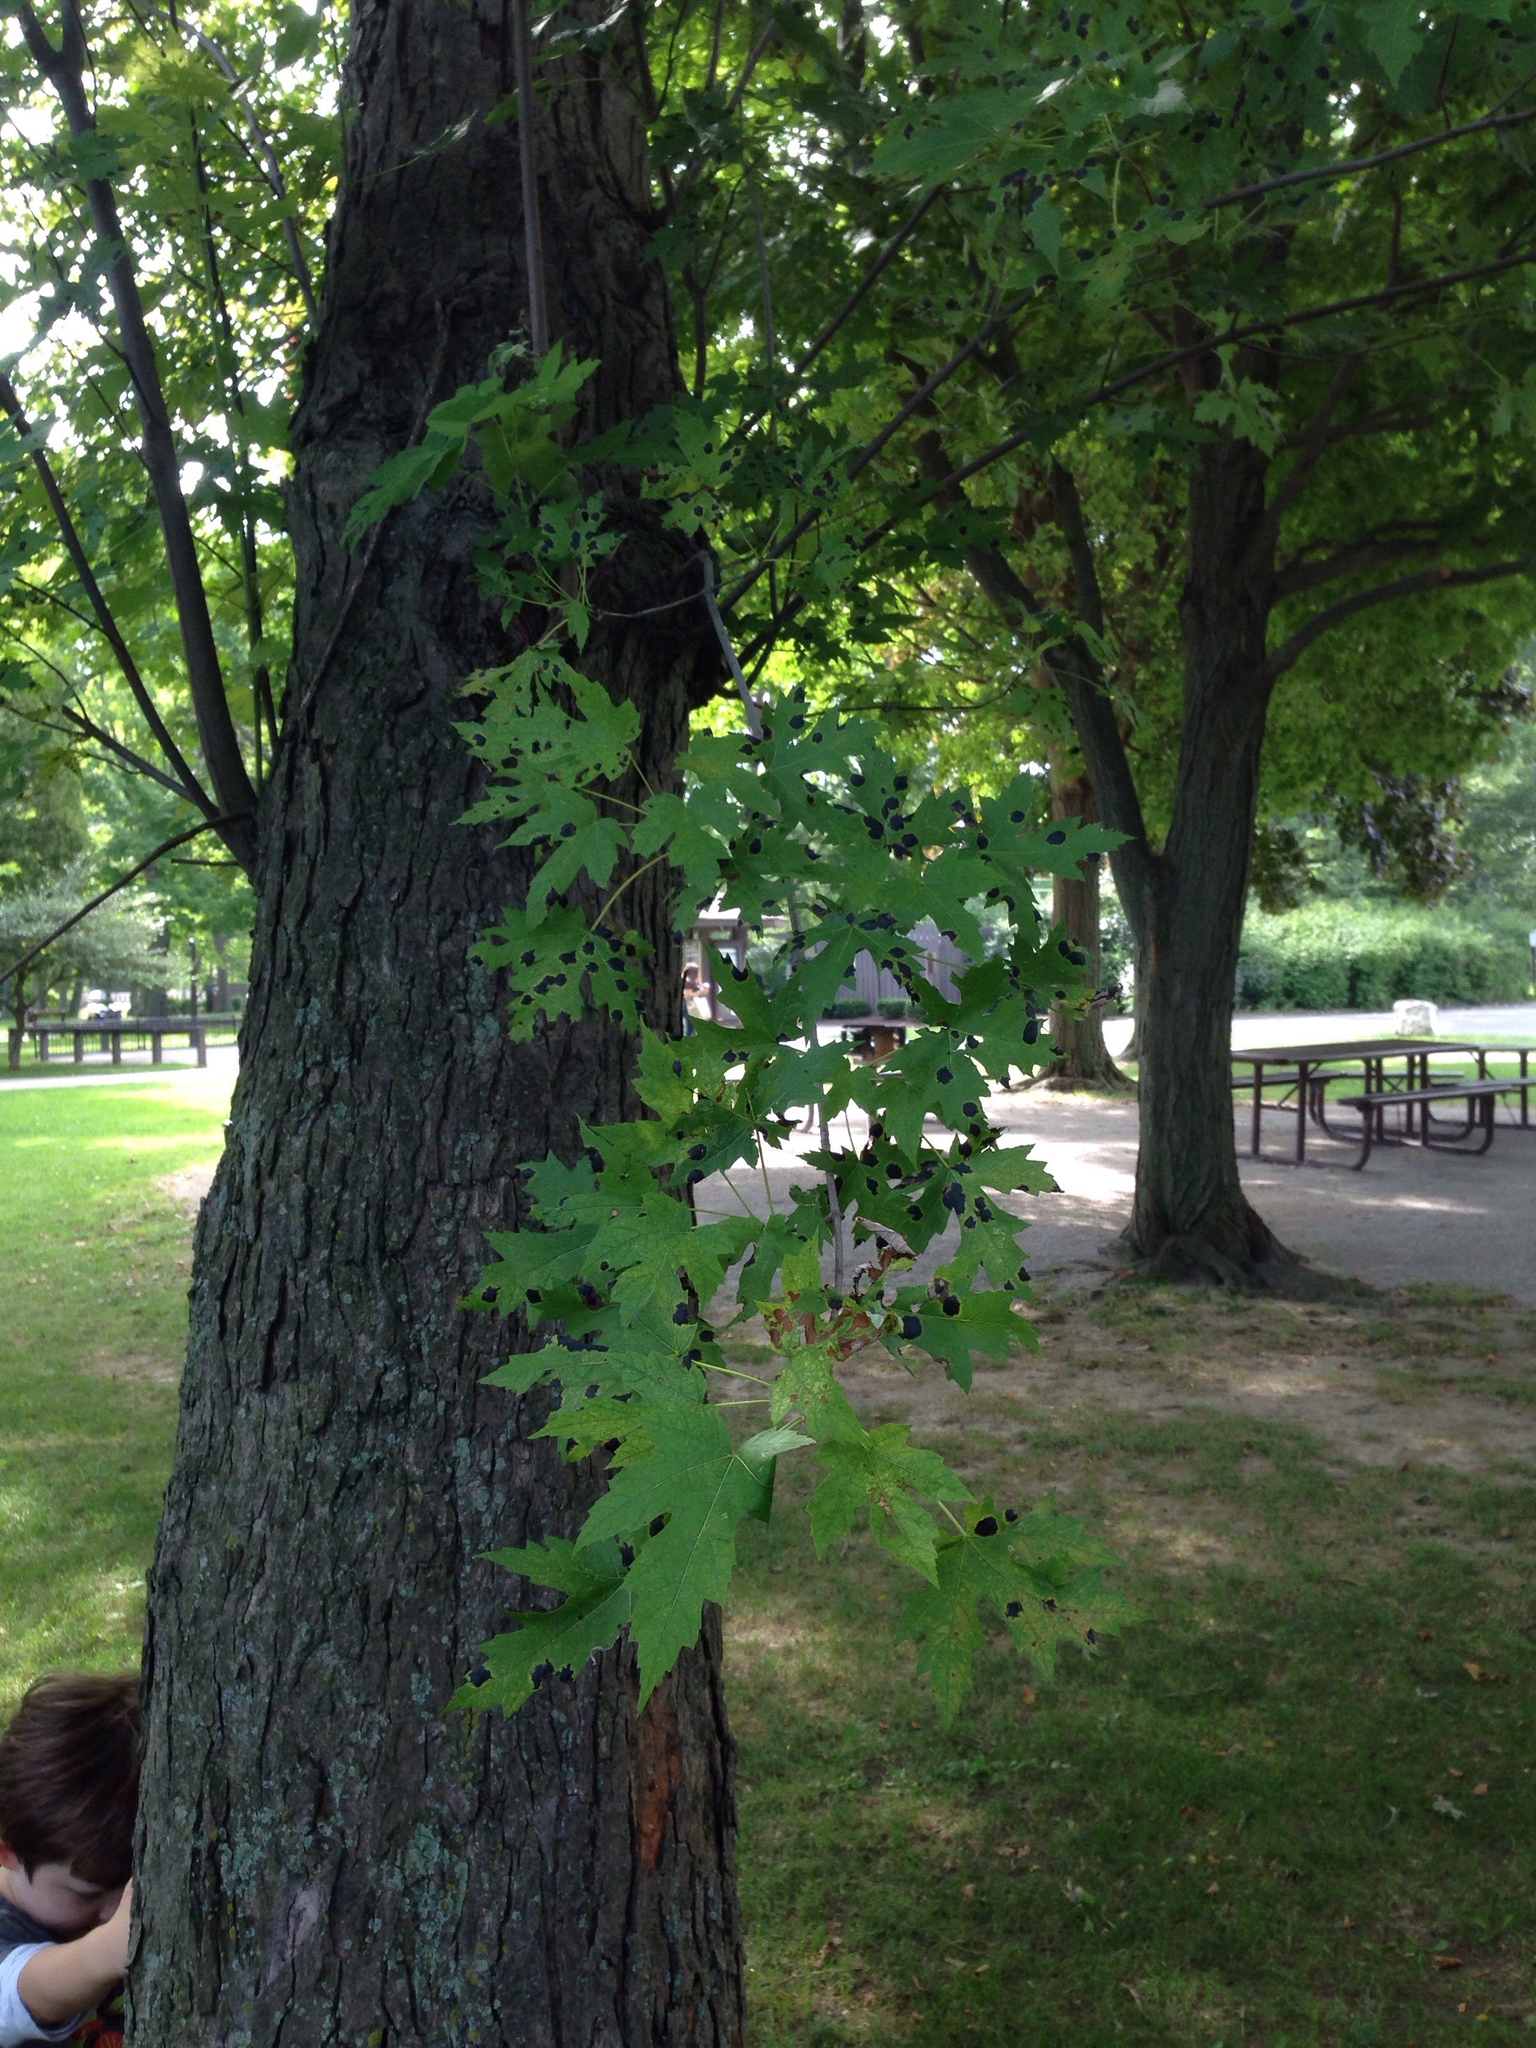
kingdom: Plantae
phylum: Tracheophyta
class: Magnoliopsida
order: Sapindales
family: Sapindaceae
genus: Acer
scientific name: Acer saccharinum
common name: Silver maple
